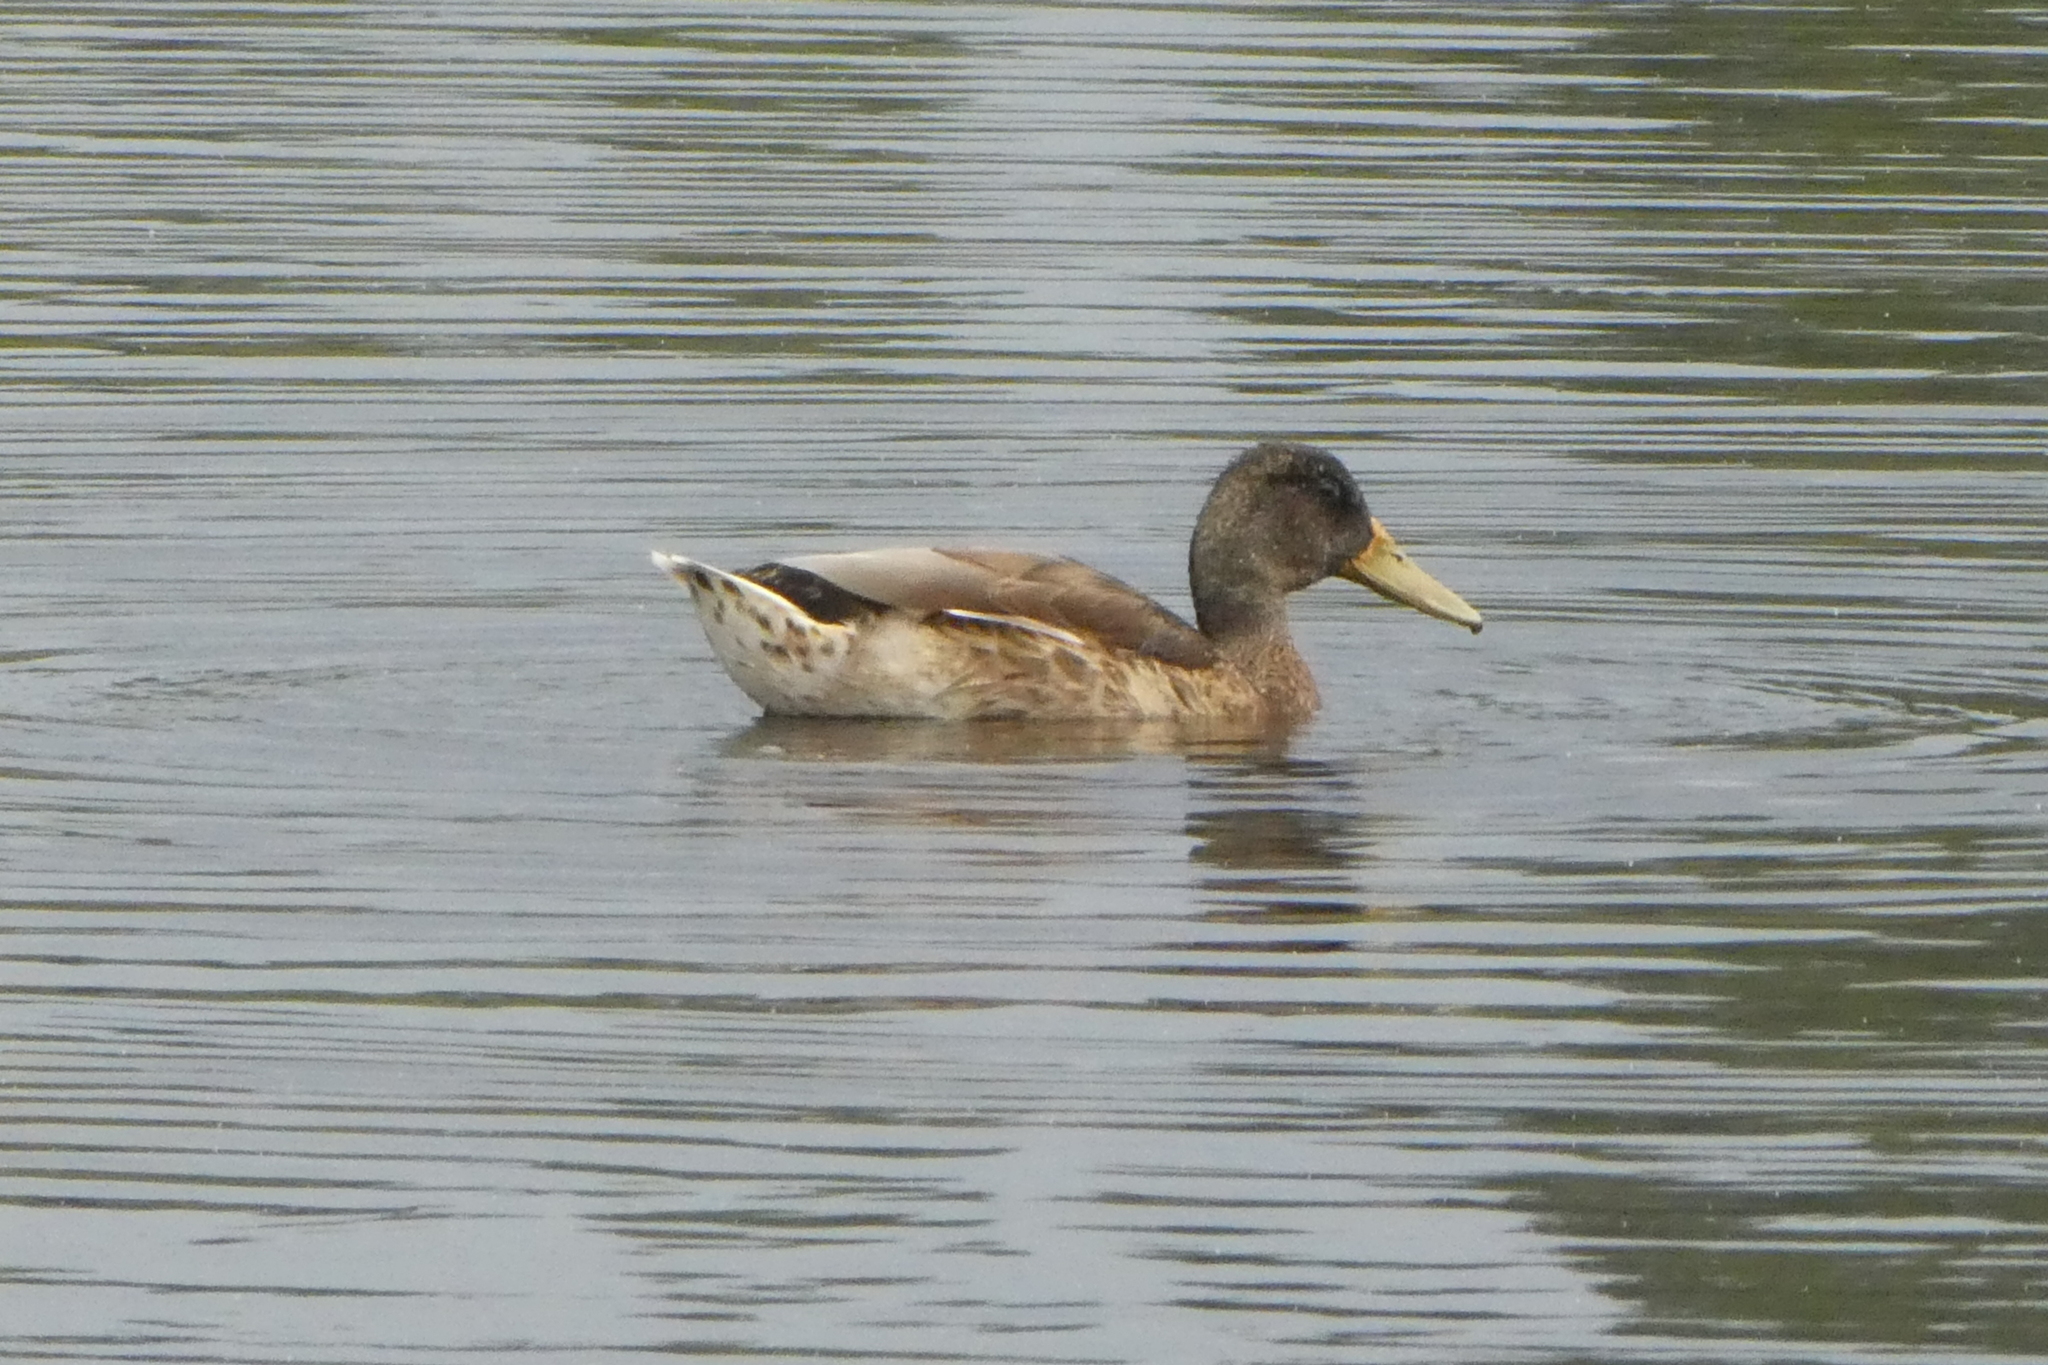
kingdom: Animalia
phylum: Chordata
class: Aves
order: Anseriformes
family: Anatidae
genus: Anas
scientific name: Anas platyrhynchos
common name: Mallard
